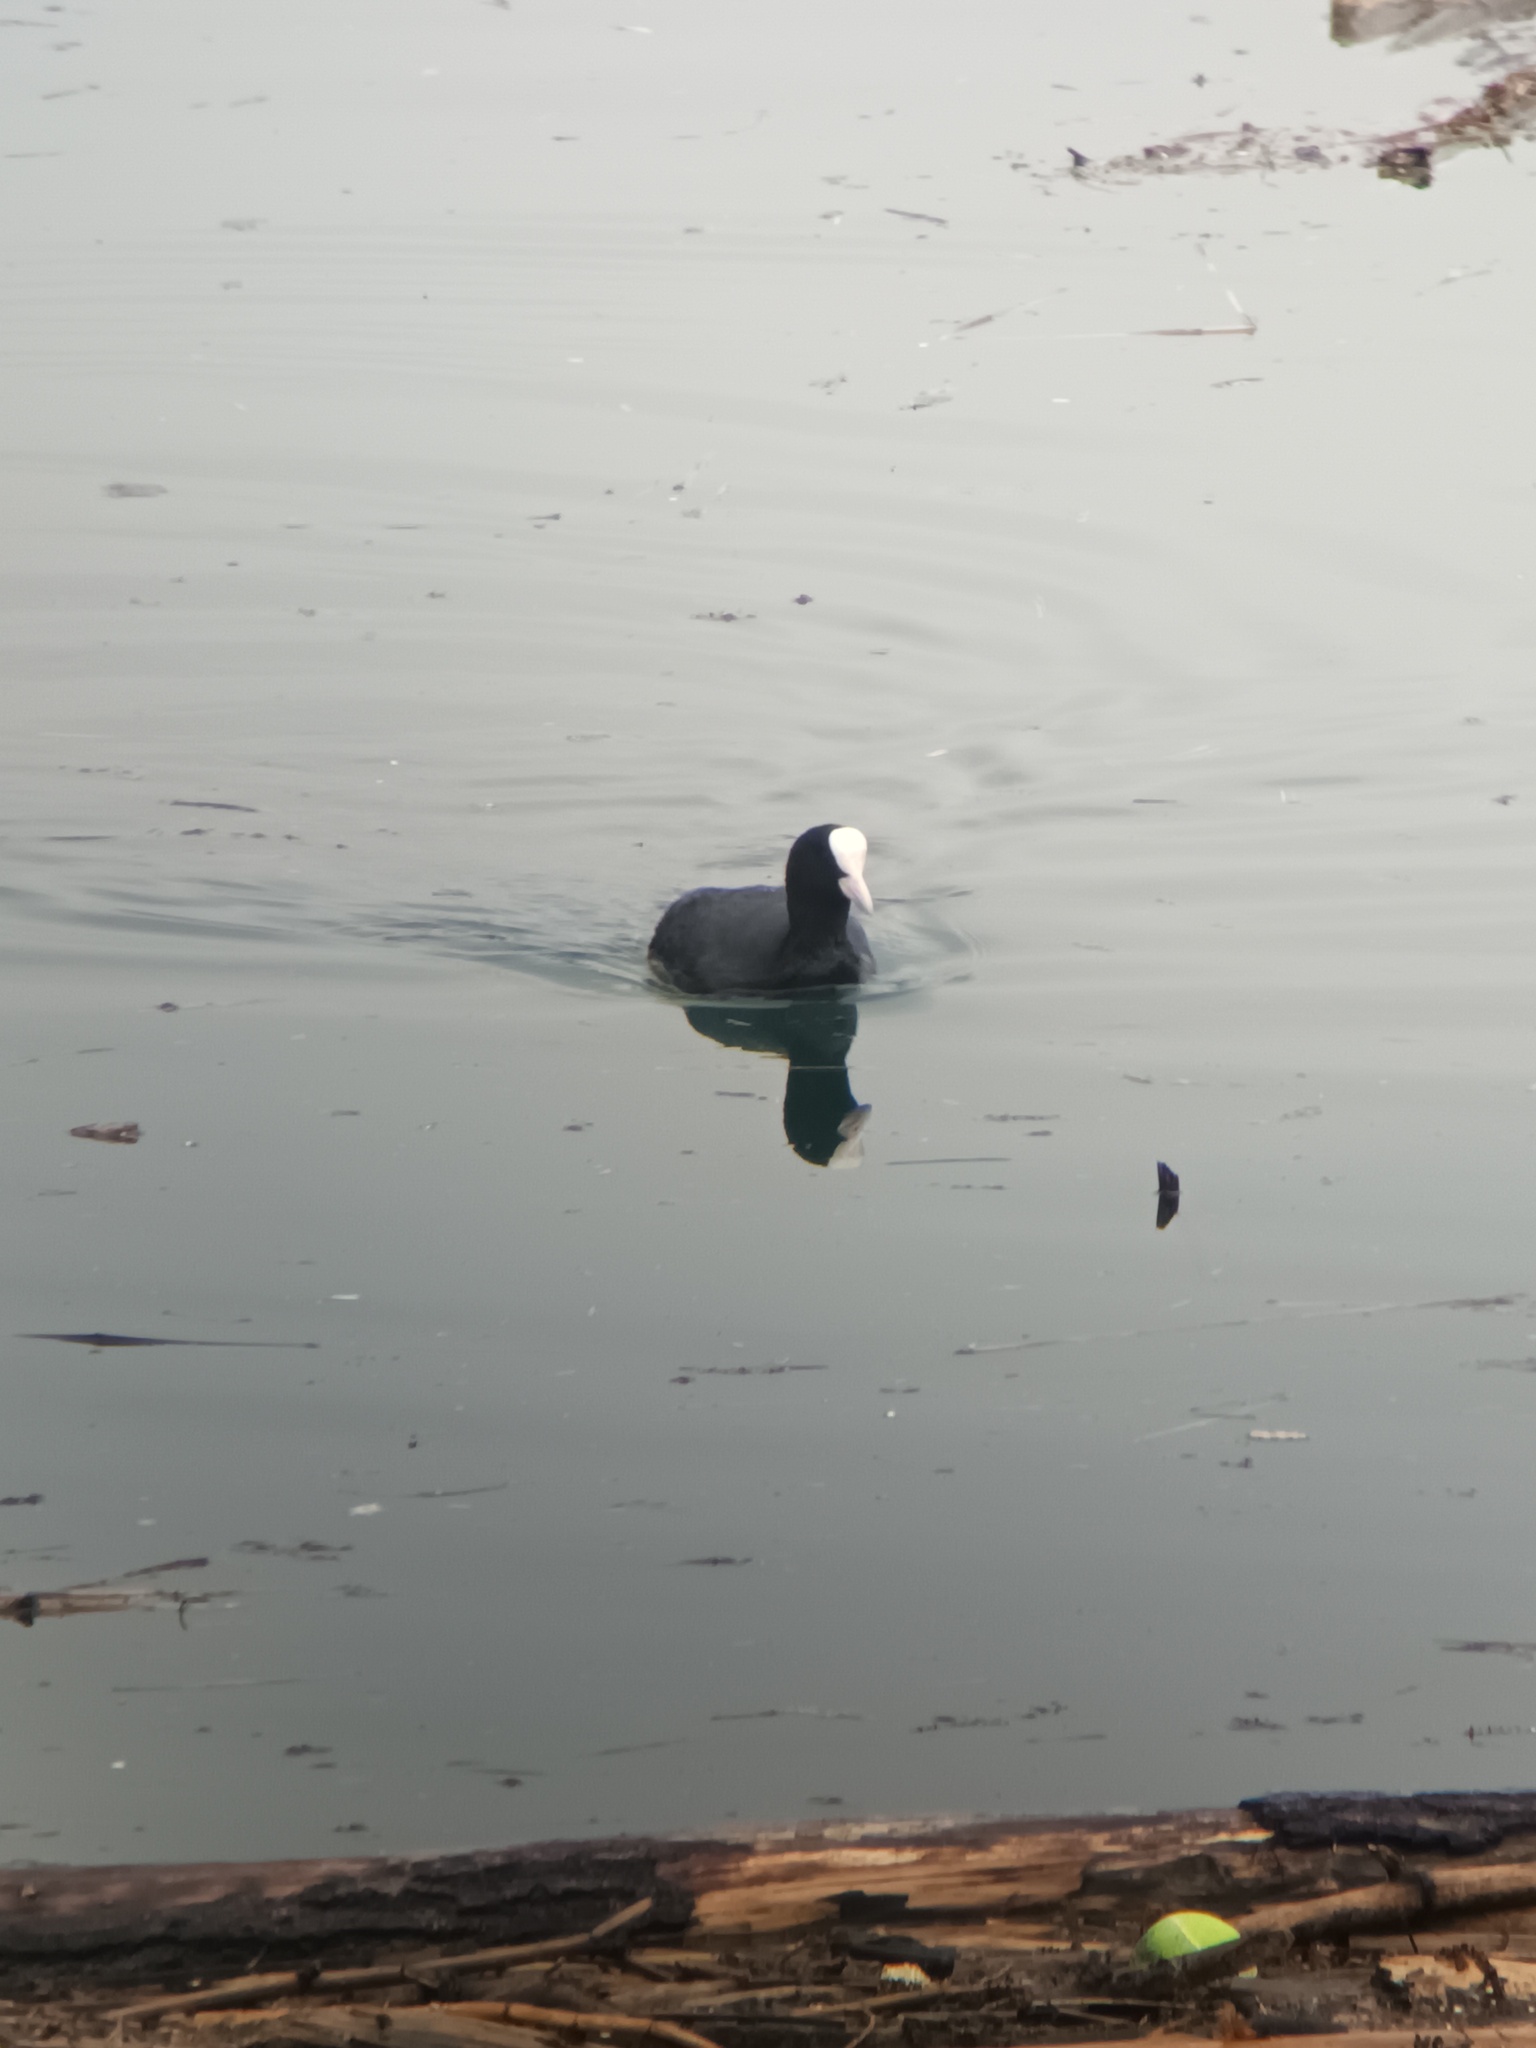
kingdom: Animalia
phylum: Chordata
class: Aves
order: Gruiformes
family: Rallidae
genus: Fulica
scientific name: Fulica atra
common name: Eurasian coot
